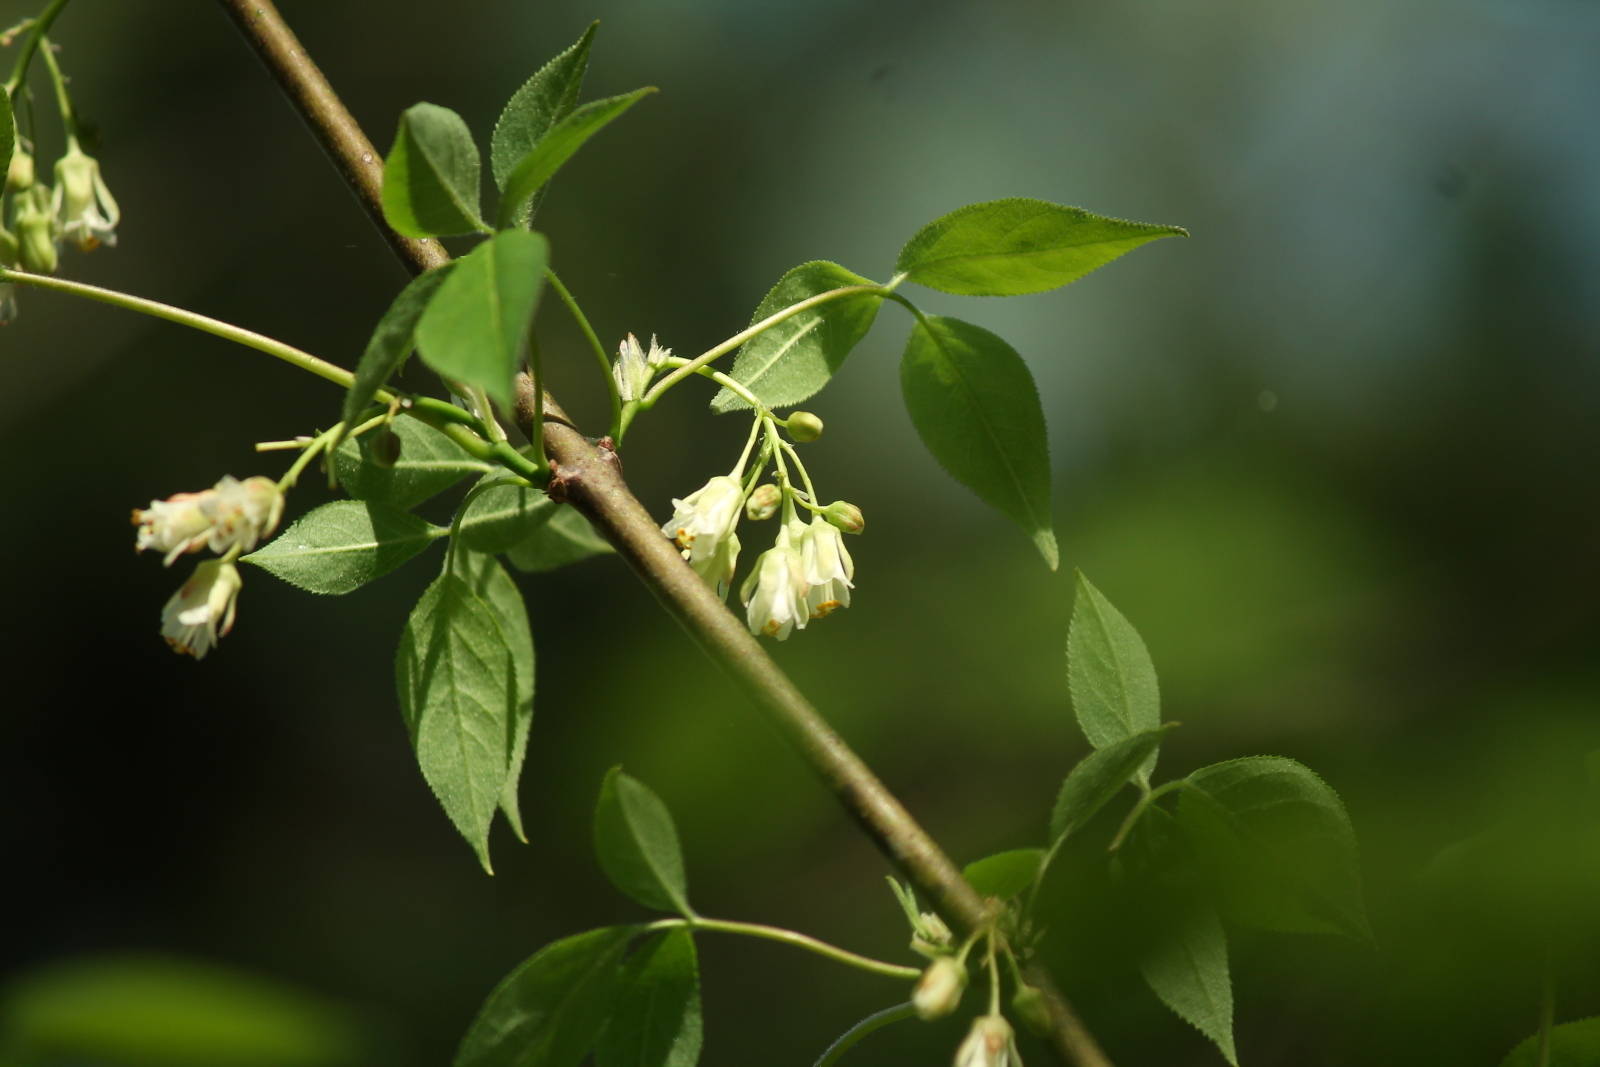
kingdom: Plantae
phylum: Tracheophyta
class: Magnoliopsida
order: Crossosomatales
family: Staphyleaceae
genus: Staphylea
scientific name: Staphylea trifolia
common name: American bladdernut
